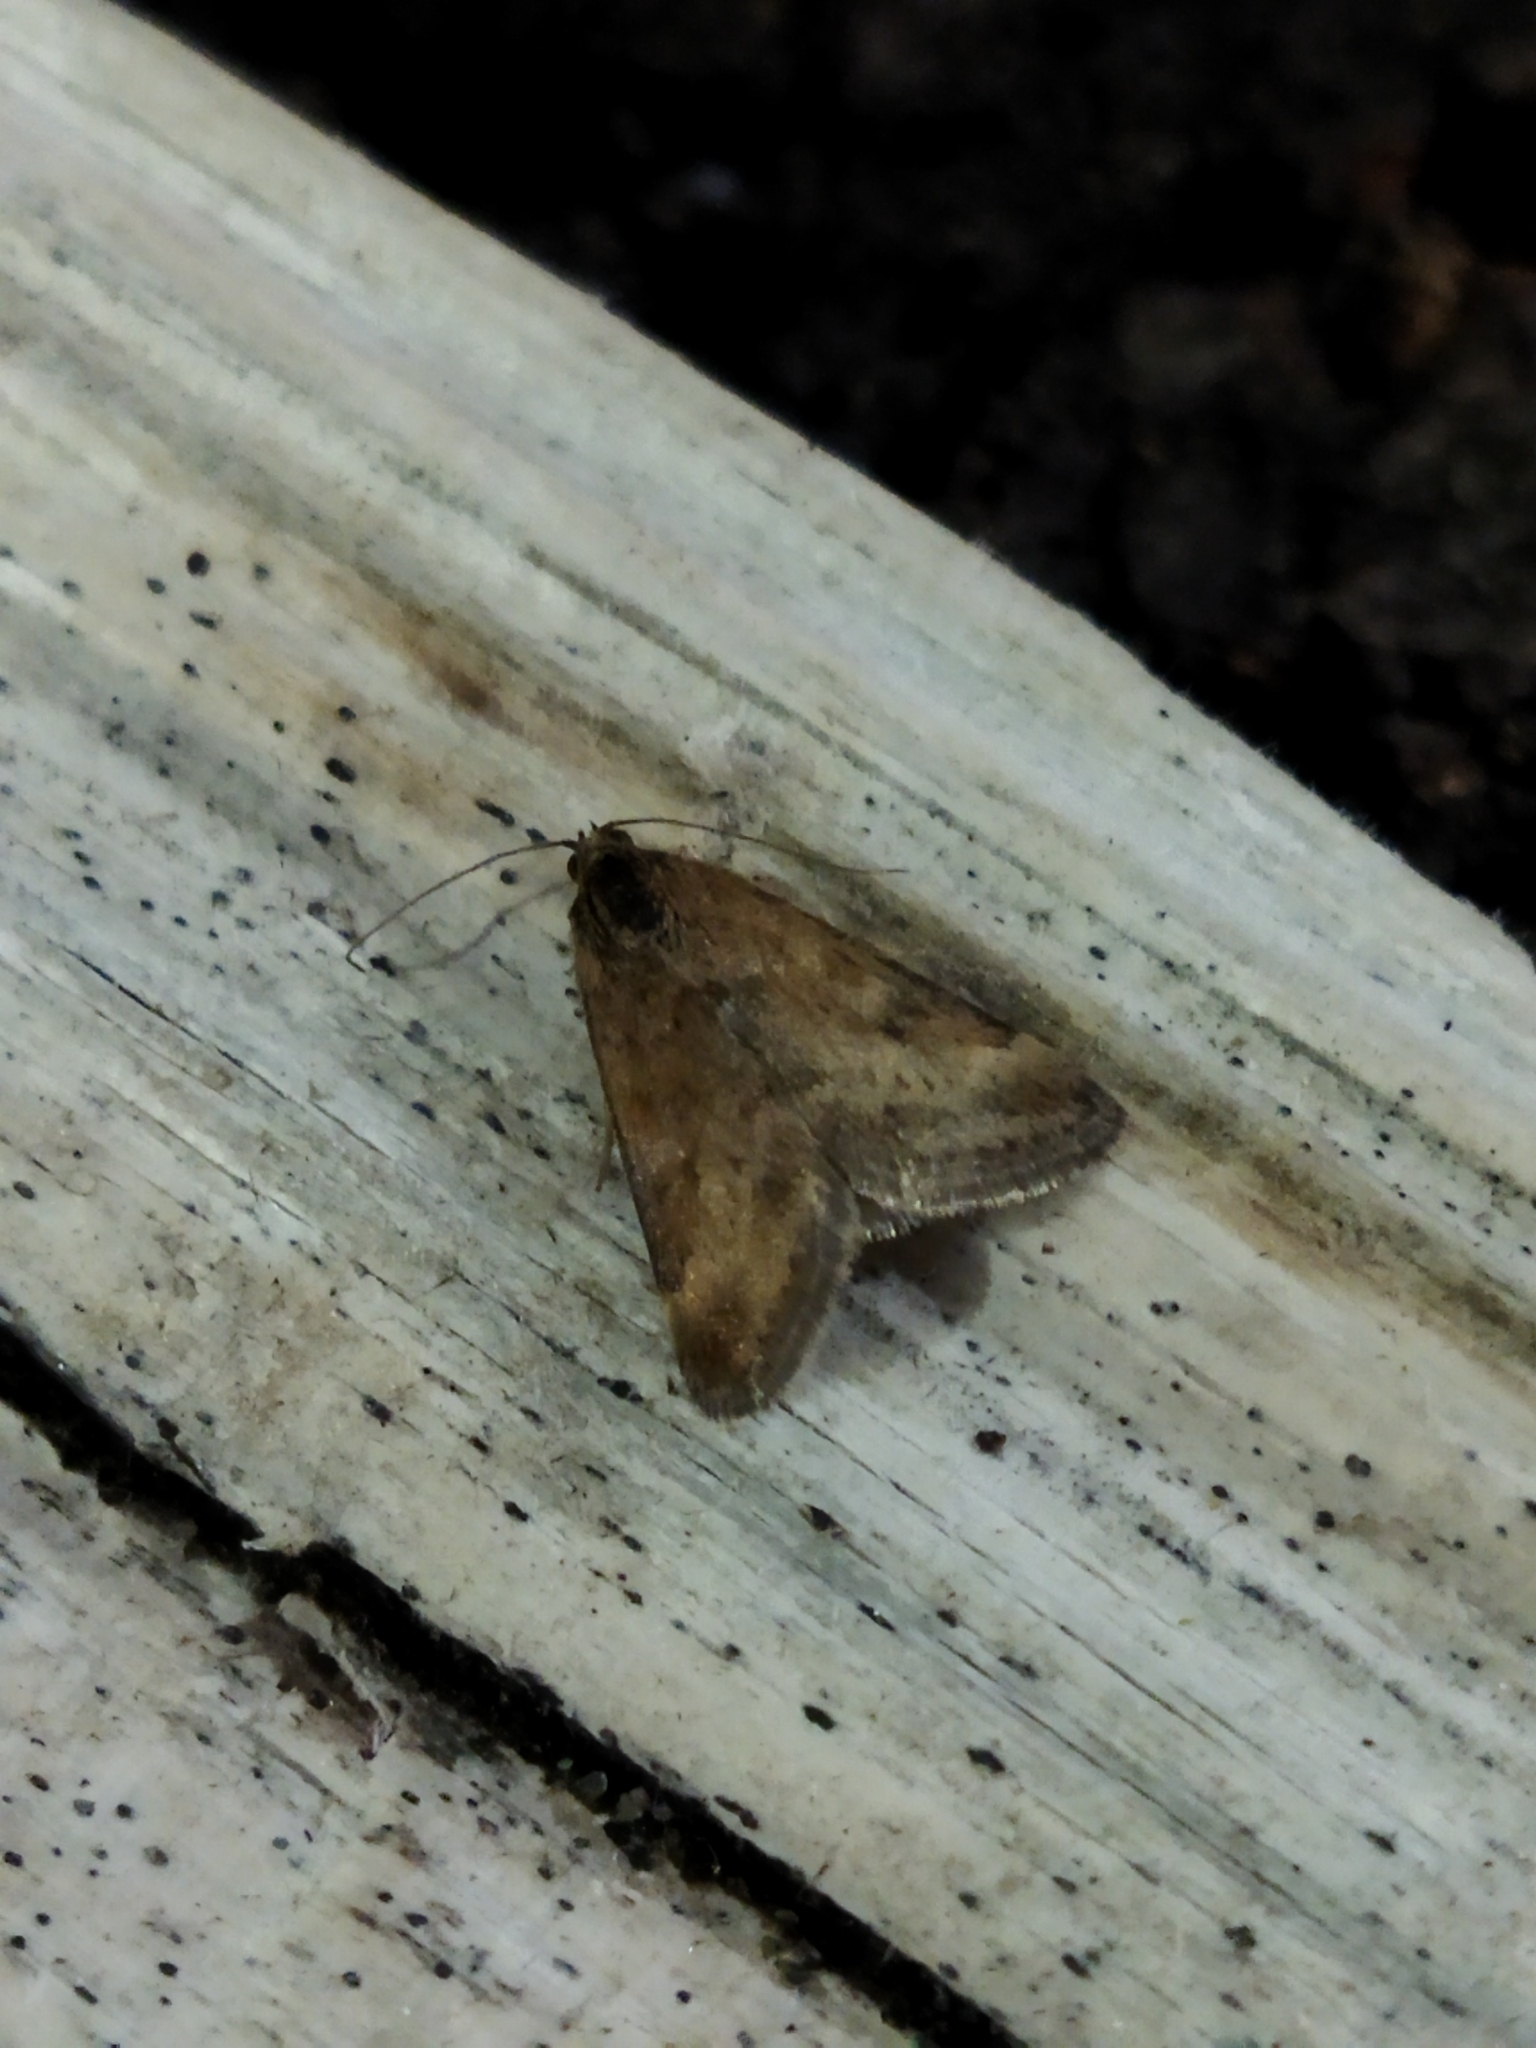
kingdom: Animalia
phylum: Arthropoda
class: Insecta
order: Lepidoptera
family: Crambidae
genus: Pyrausta
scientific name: Pyrausta despicata
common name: Straw-barred pearl
